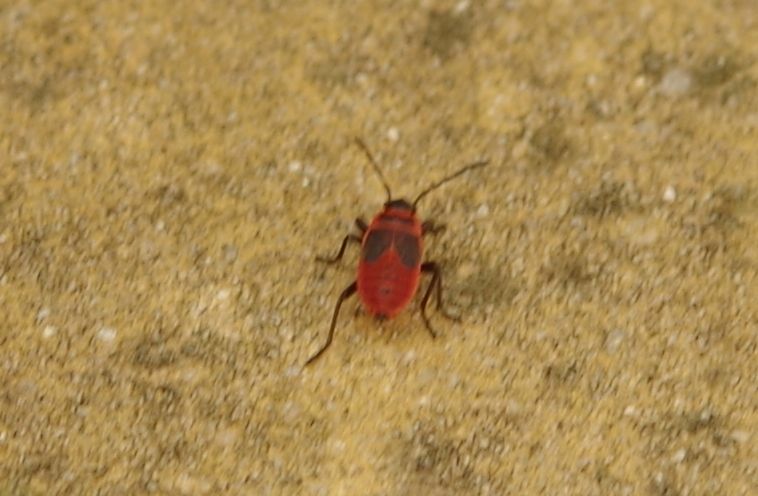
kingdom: Animalia
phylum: Arthropoda
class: Insecta
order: Hemiptera
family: Pyrrhocoridae
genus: Pyrrhocoris
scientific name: Pyrrhocoris apterus
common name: Firebug
